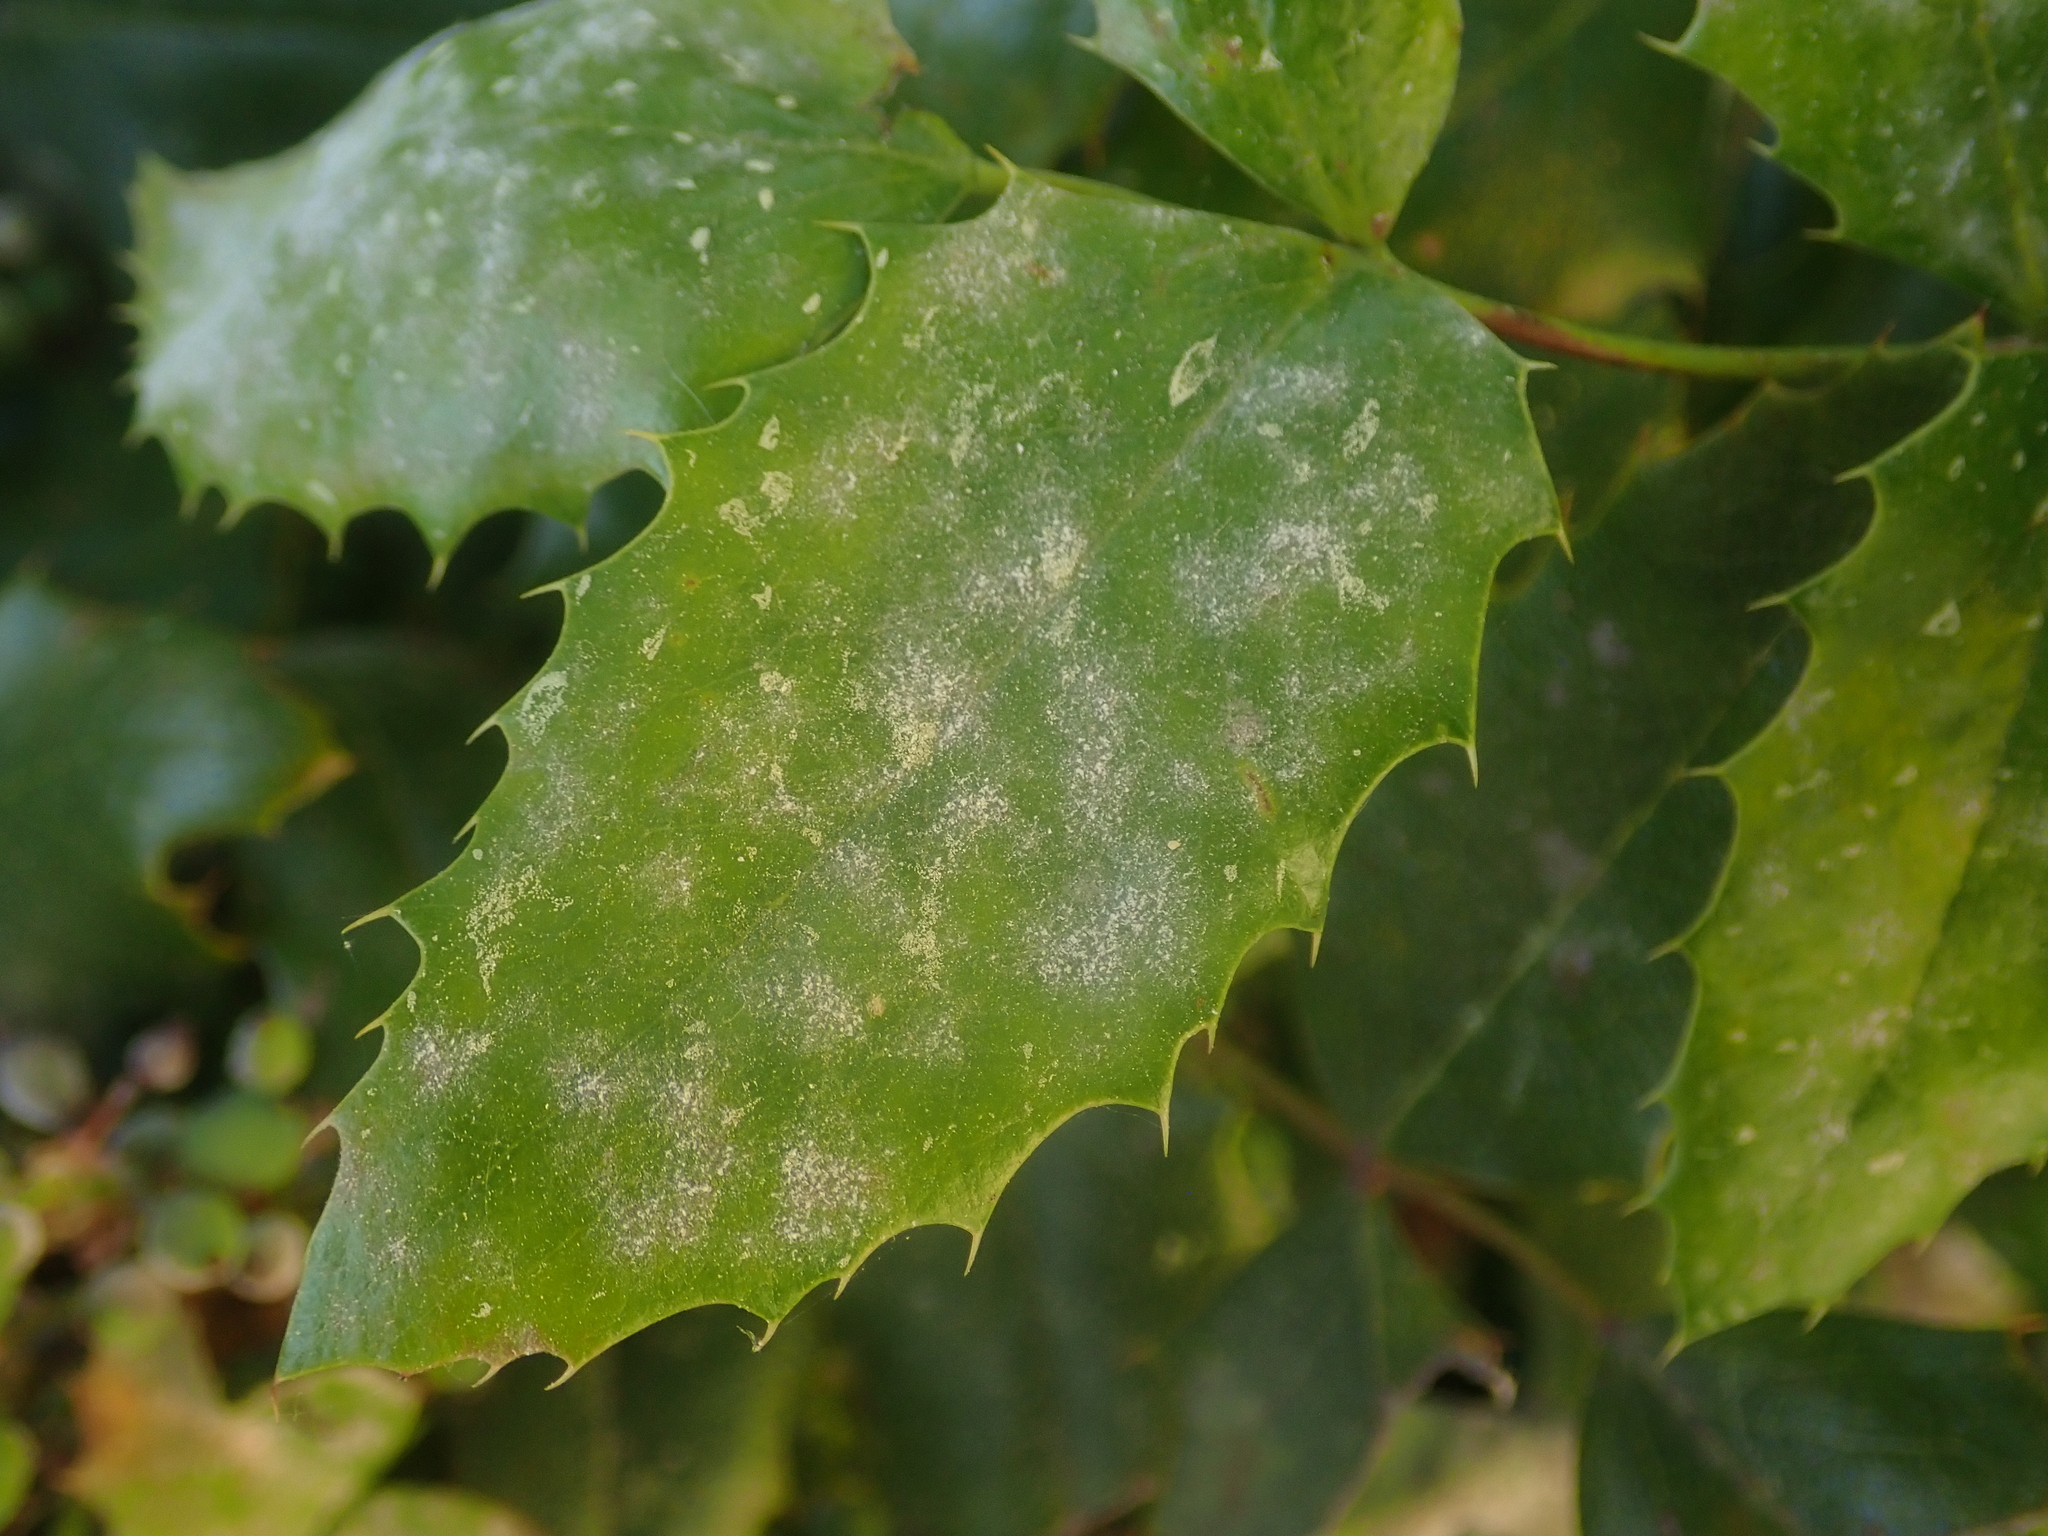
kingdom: Fungi
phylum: Ascomycota
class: Leotiomycetes
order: Helotiales
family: Erysiphaceae
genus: Erysiphe
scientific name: Erysiphe berberidis
